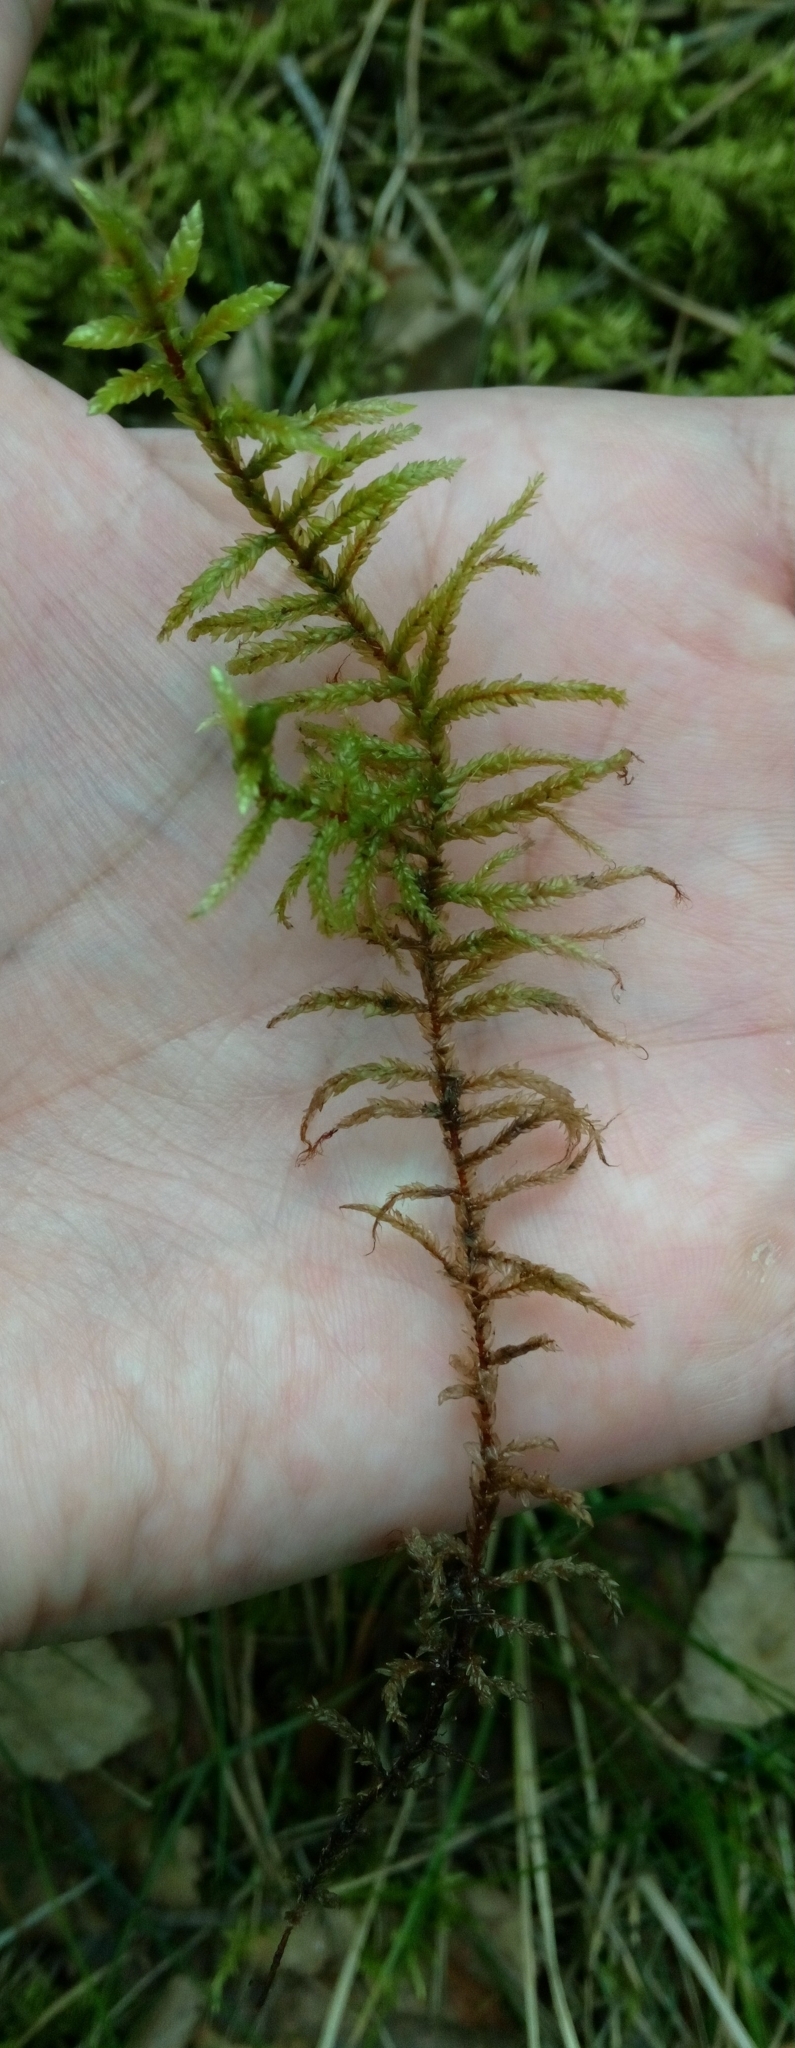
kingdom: Plantae
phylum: Bryophyta
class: Bryopsida
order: Hypnales
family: Hylocomiaceae
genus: Hylocomium
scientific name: Hylocomium splendens
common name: Stairstep moss
